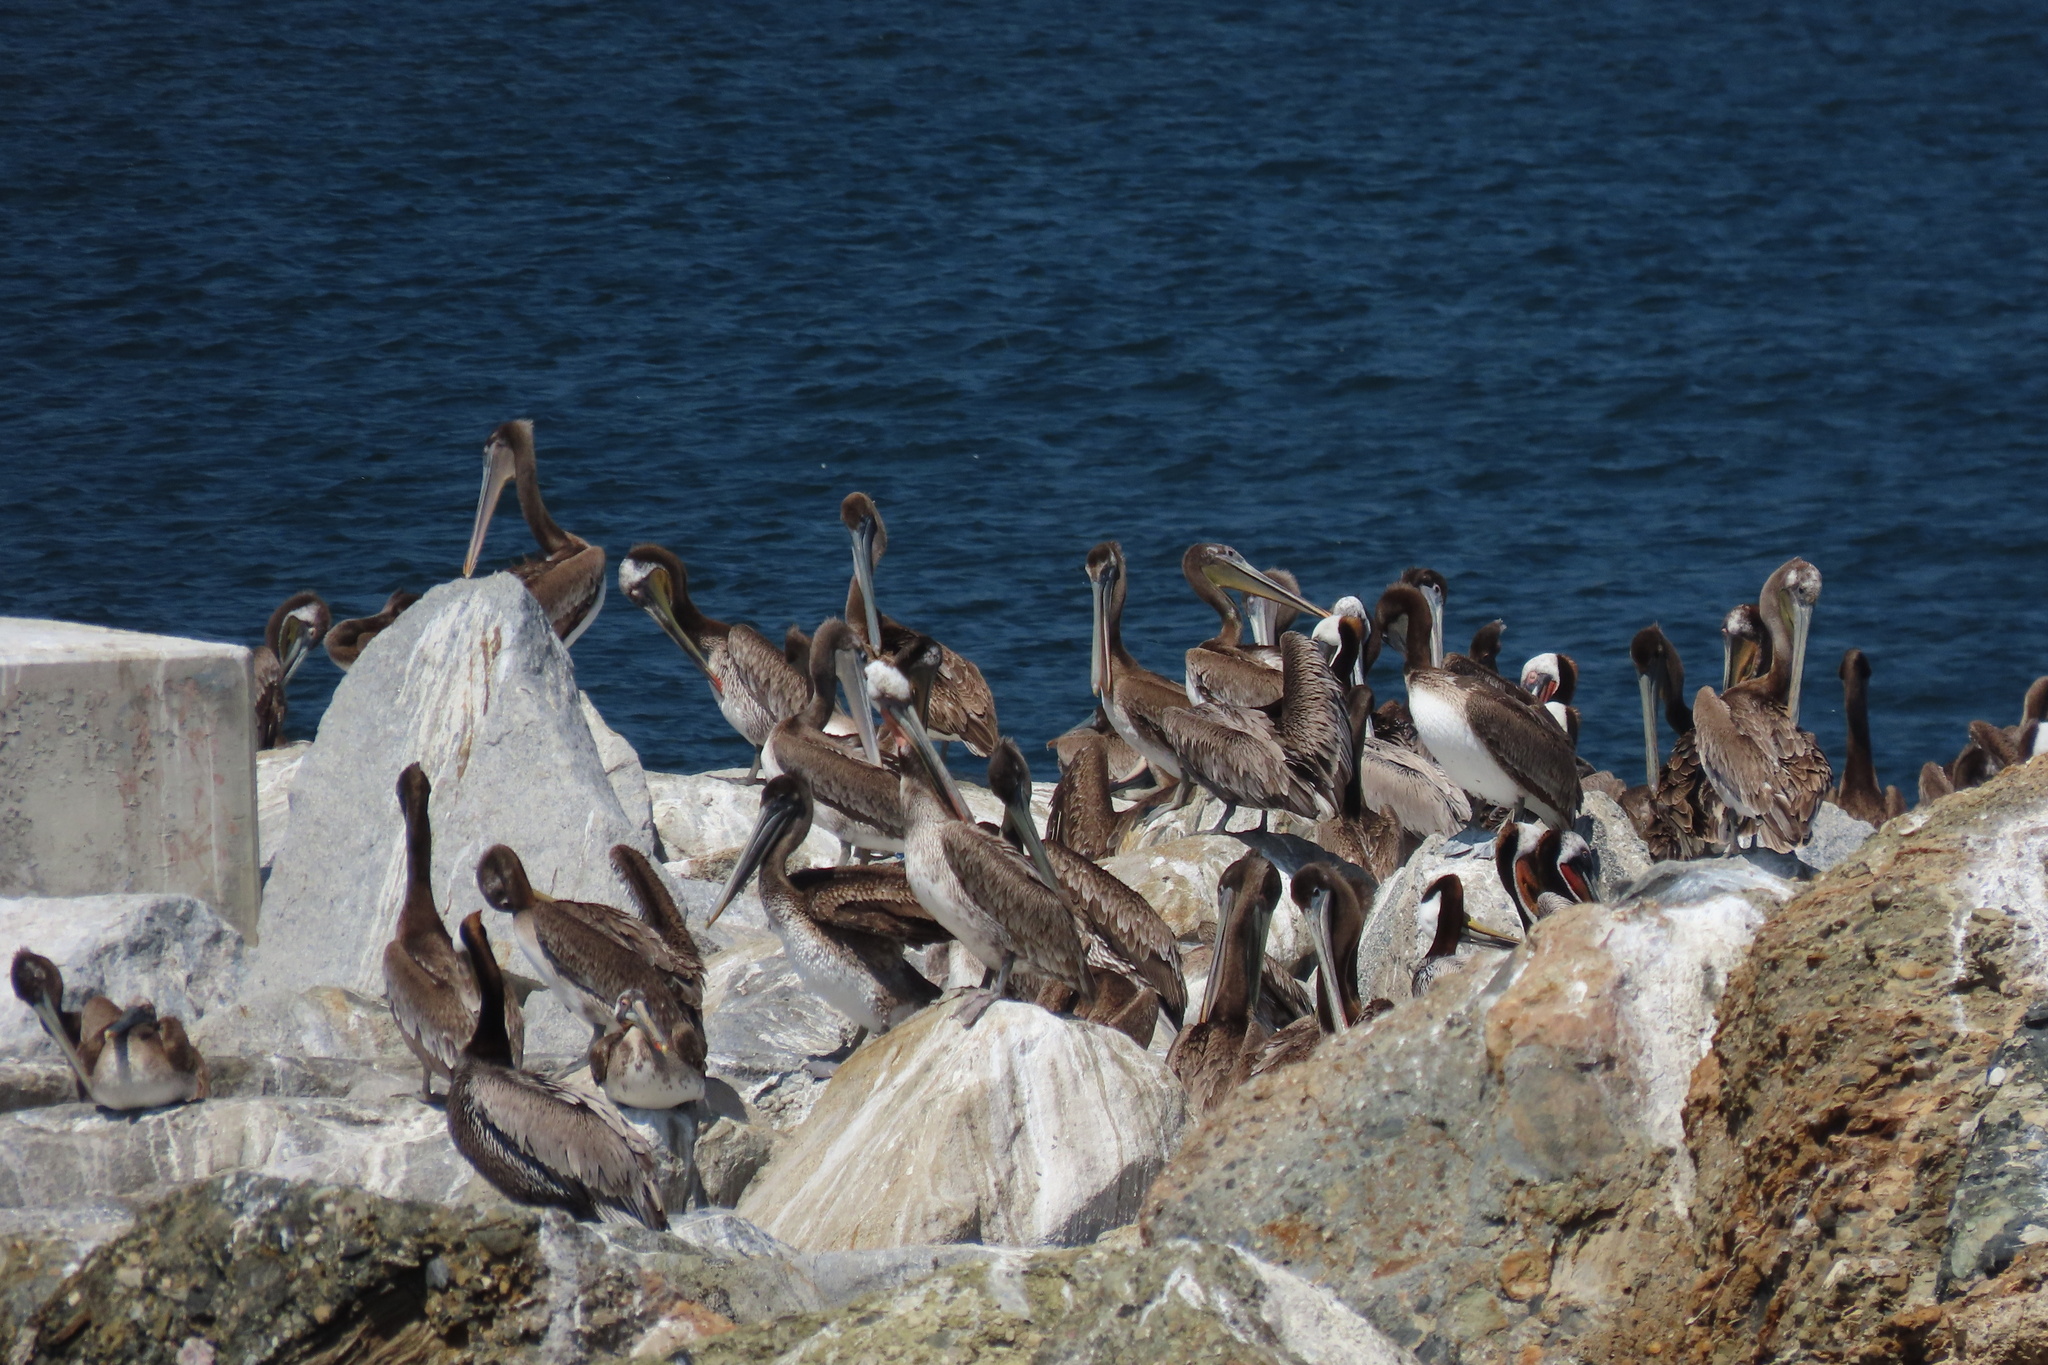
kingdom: Animalia
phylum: Chordata
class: Aves
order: Pelecaniformes
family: Pelecanidae
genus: Pelecanus
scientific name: Pelecanus occidentalis
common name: Brown pelican
